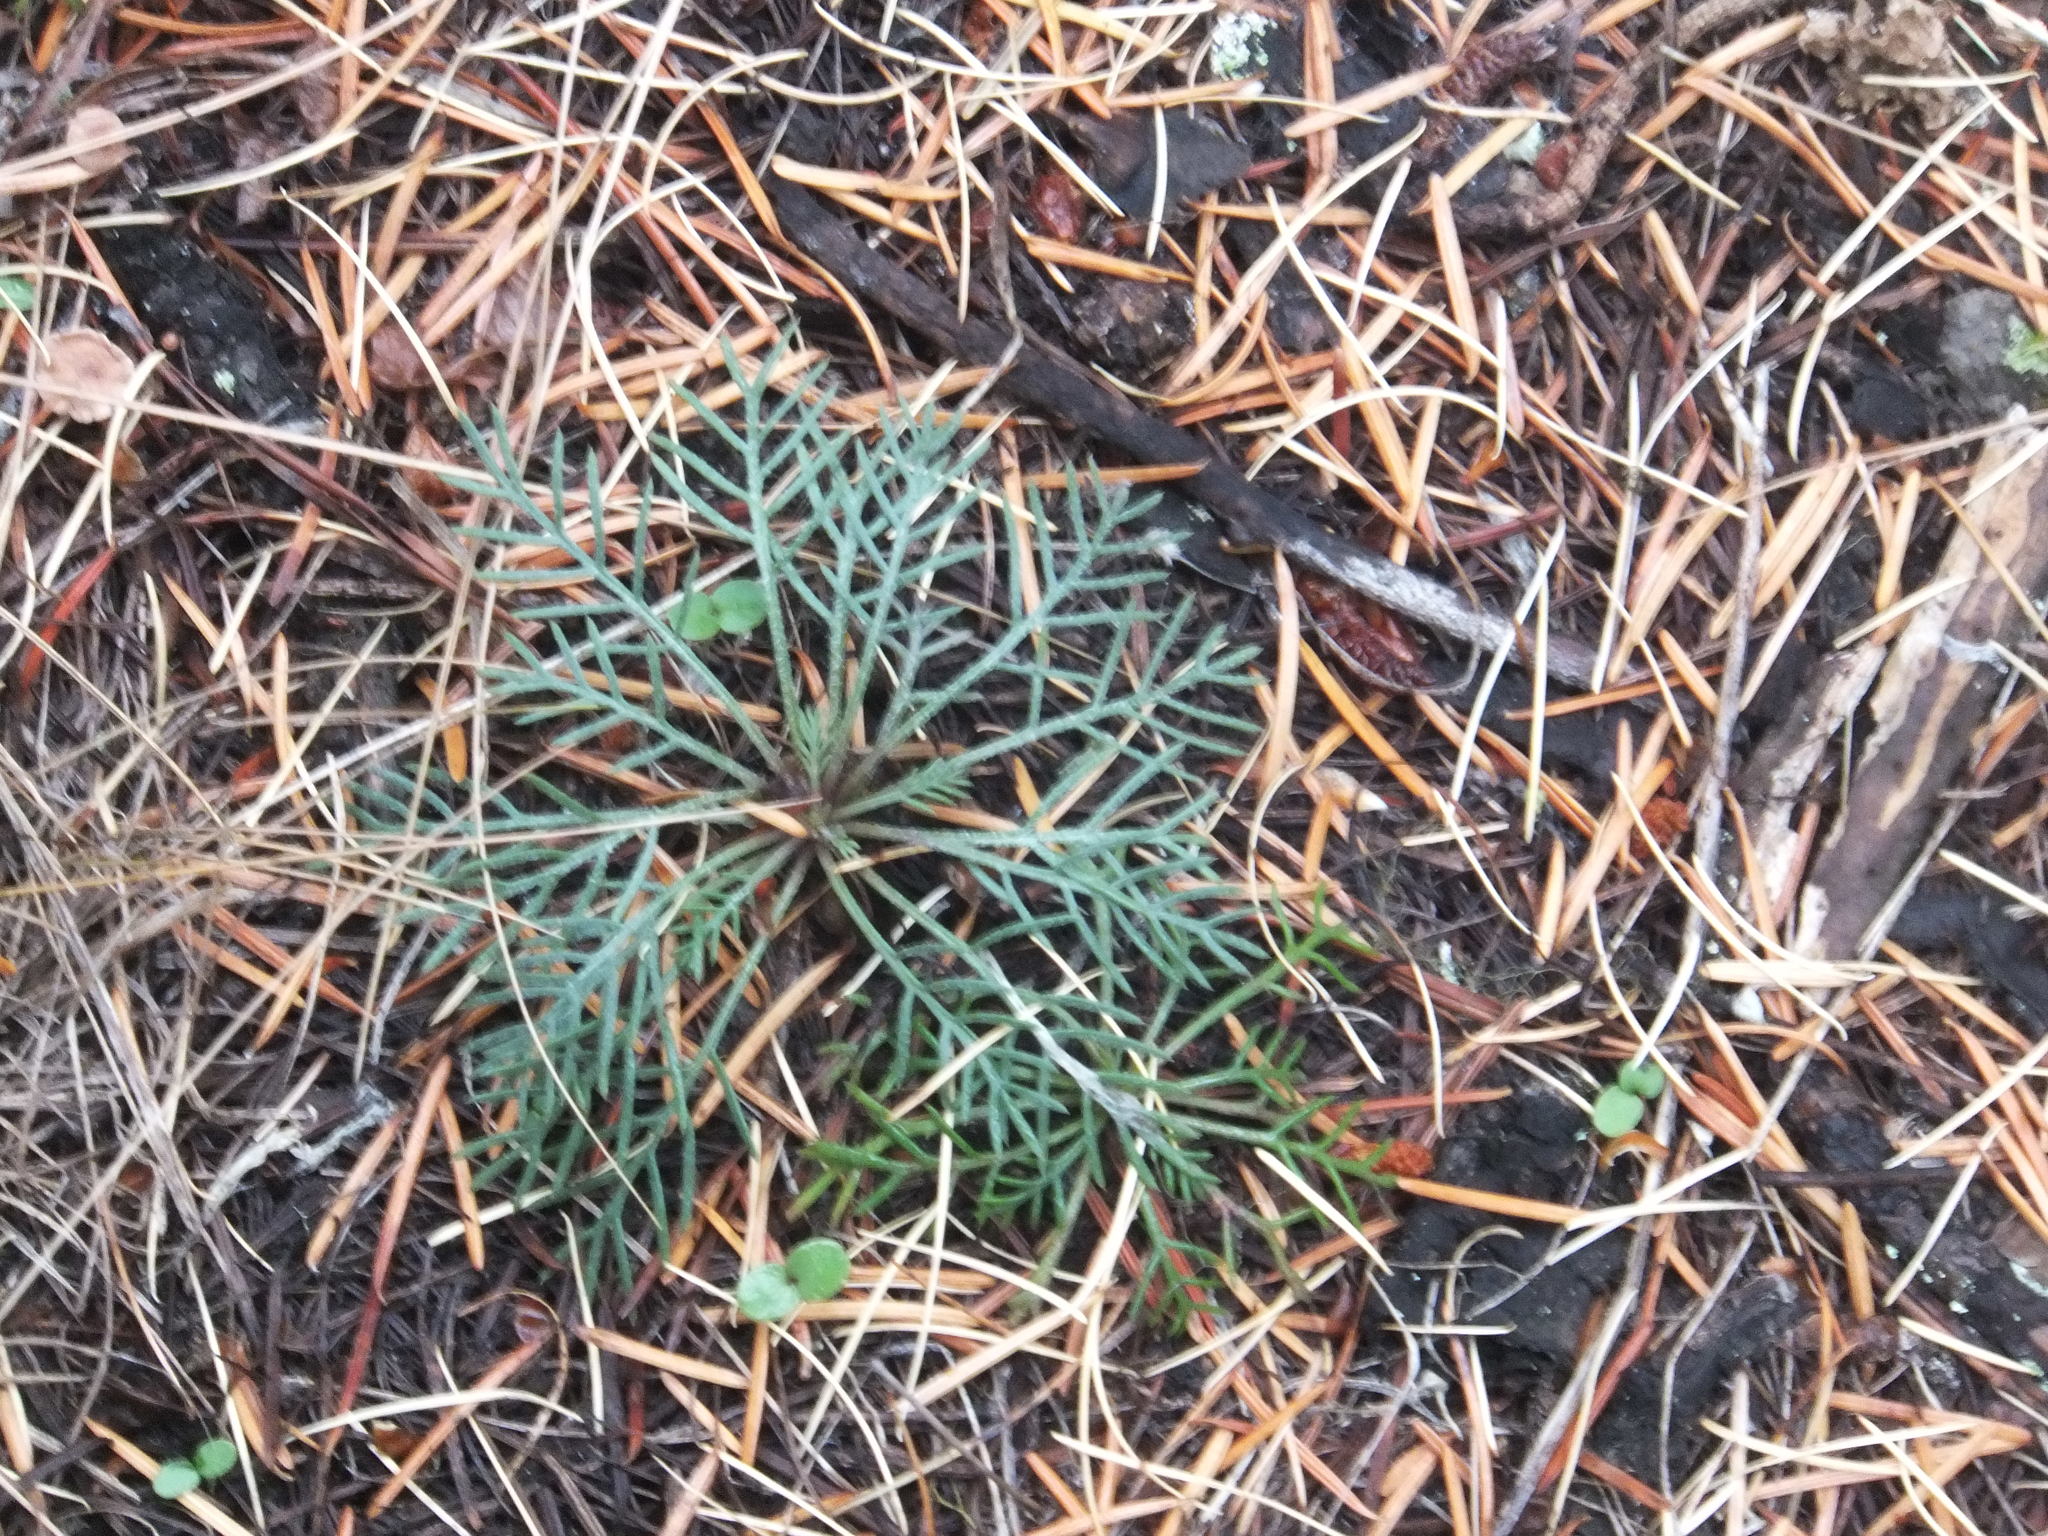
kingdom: Plantae
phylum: Tracheophyta
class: Magnoliopsida
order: Ericales
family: Polemoniaceae
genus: Ipomopsis
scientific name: Ipomopsis aggregata
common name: Scarlet gilia
